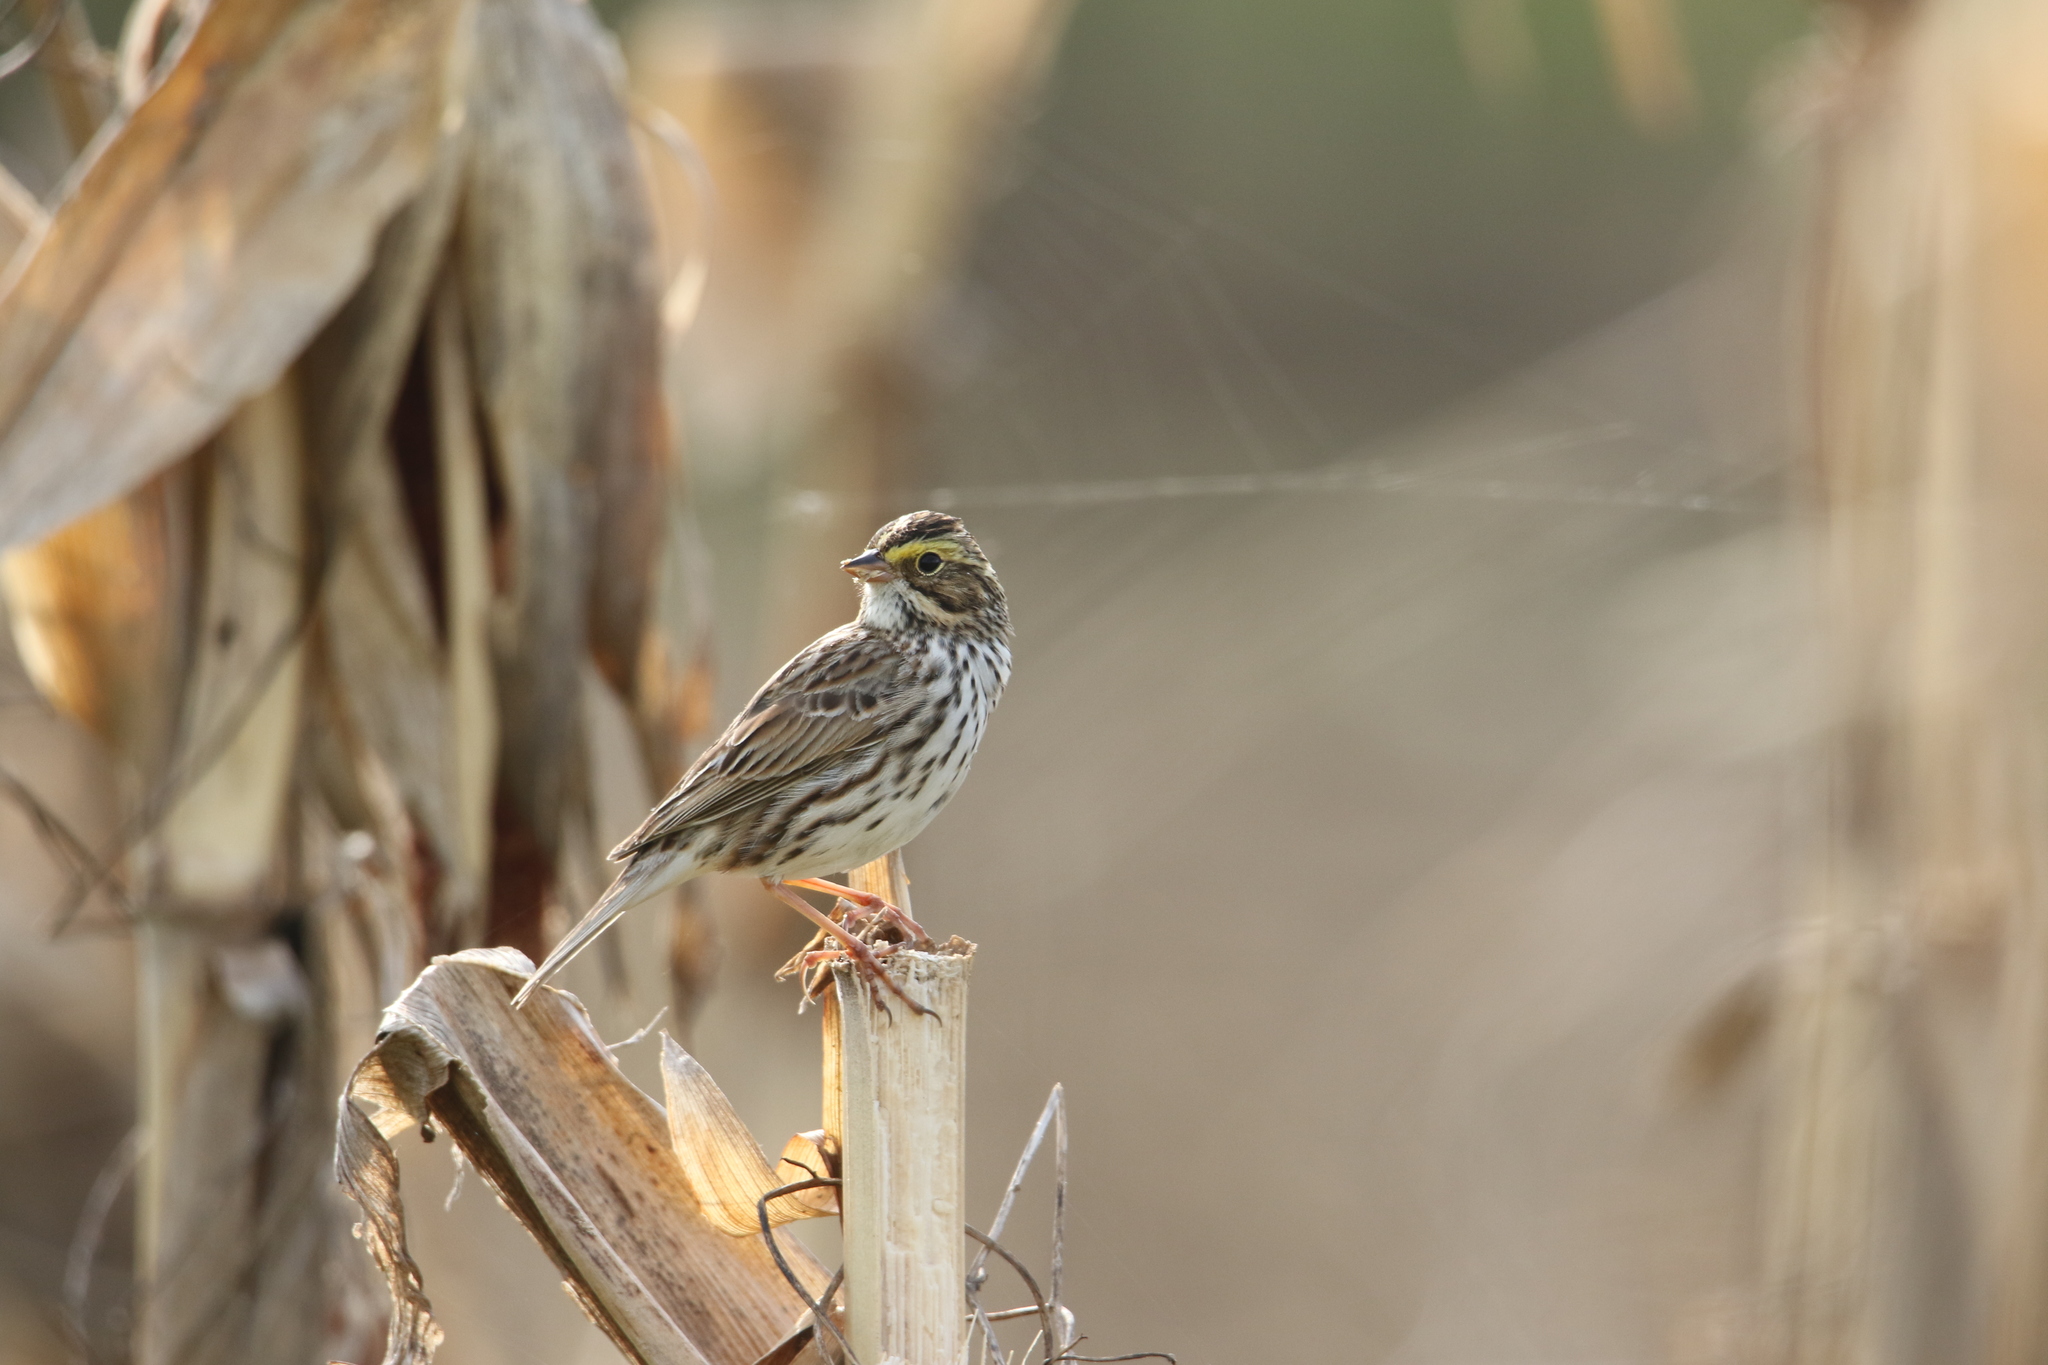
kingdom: Animalia
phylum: Chordata
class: Aves
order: Passeriformes
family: Passerellidae
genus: Passerculus
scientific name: Passerculus sandwichensis
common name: Savannah sparrow
